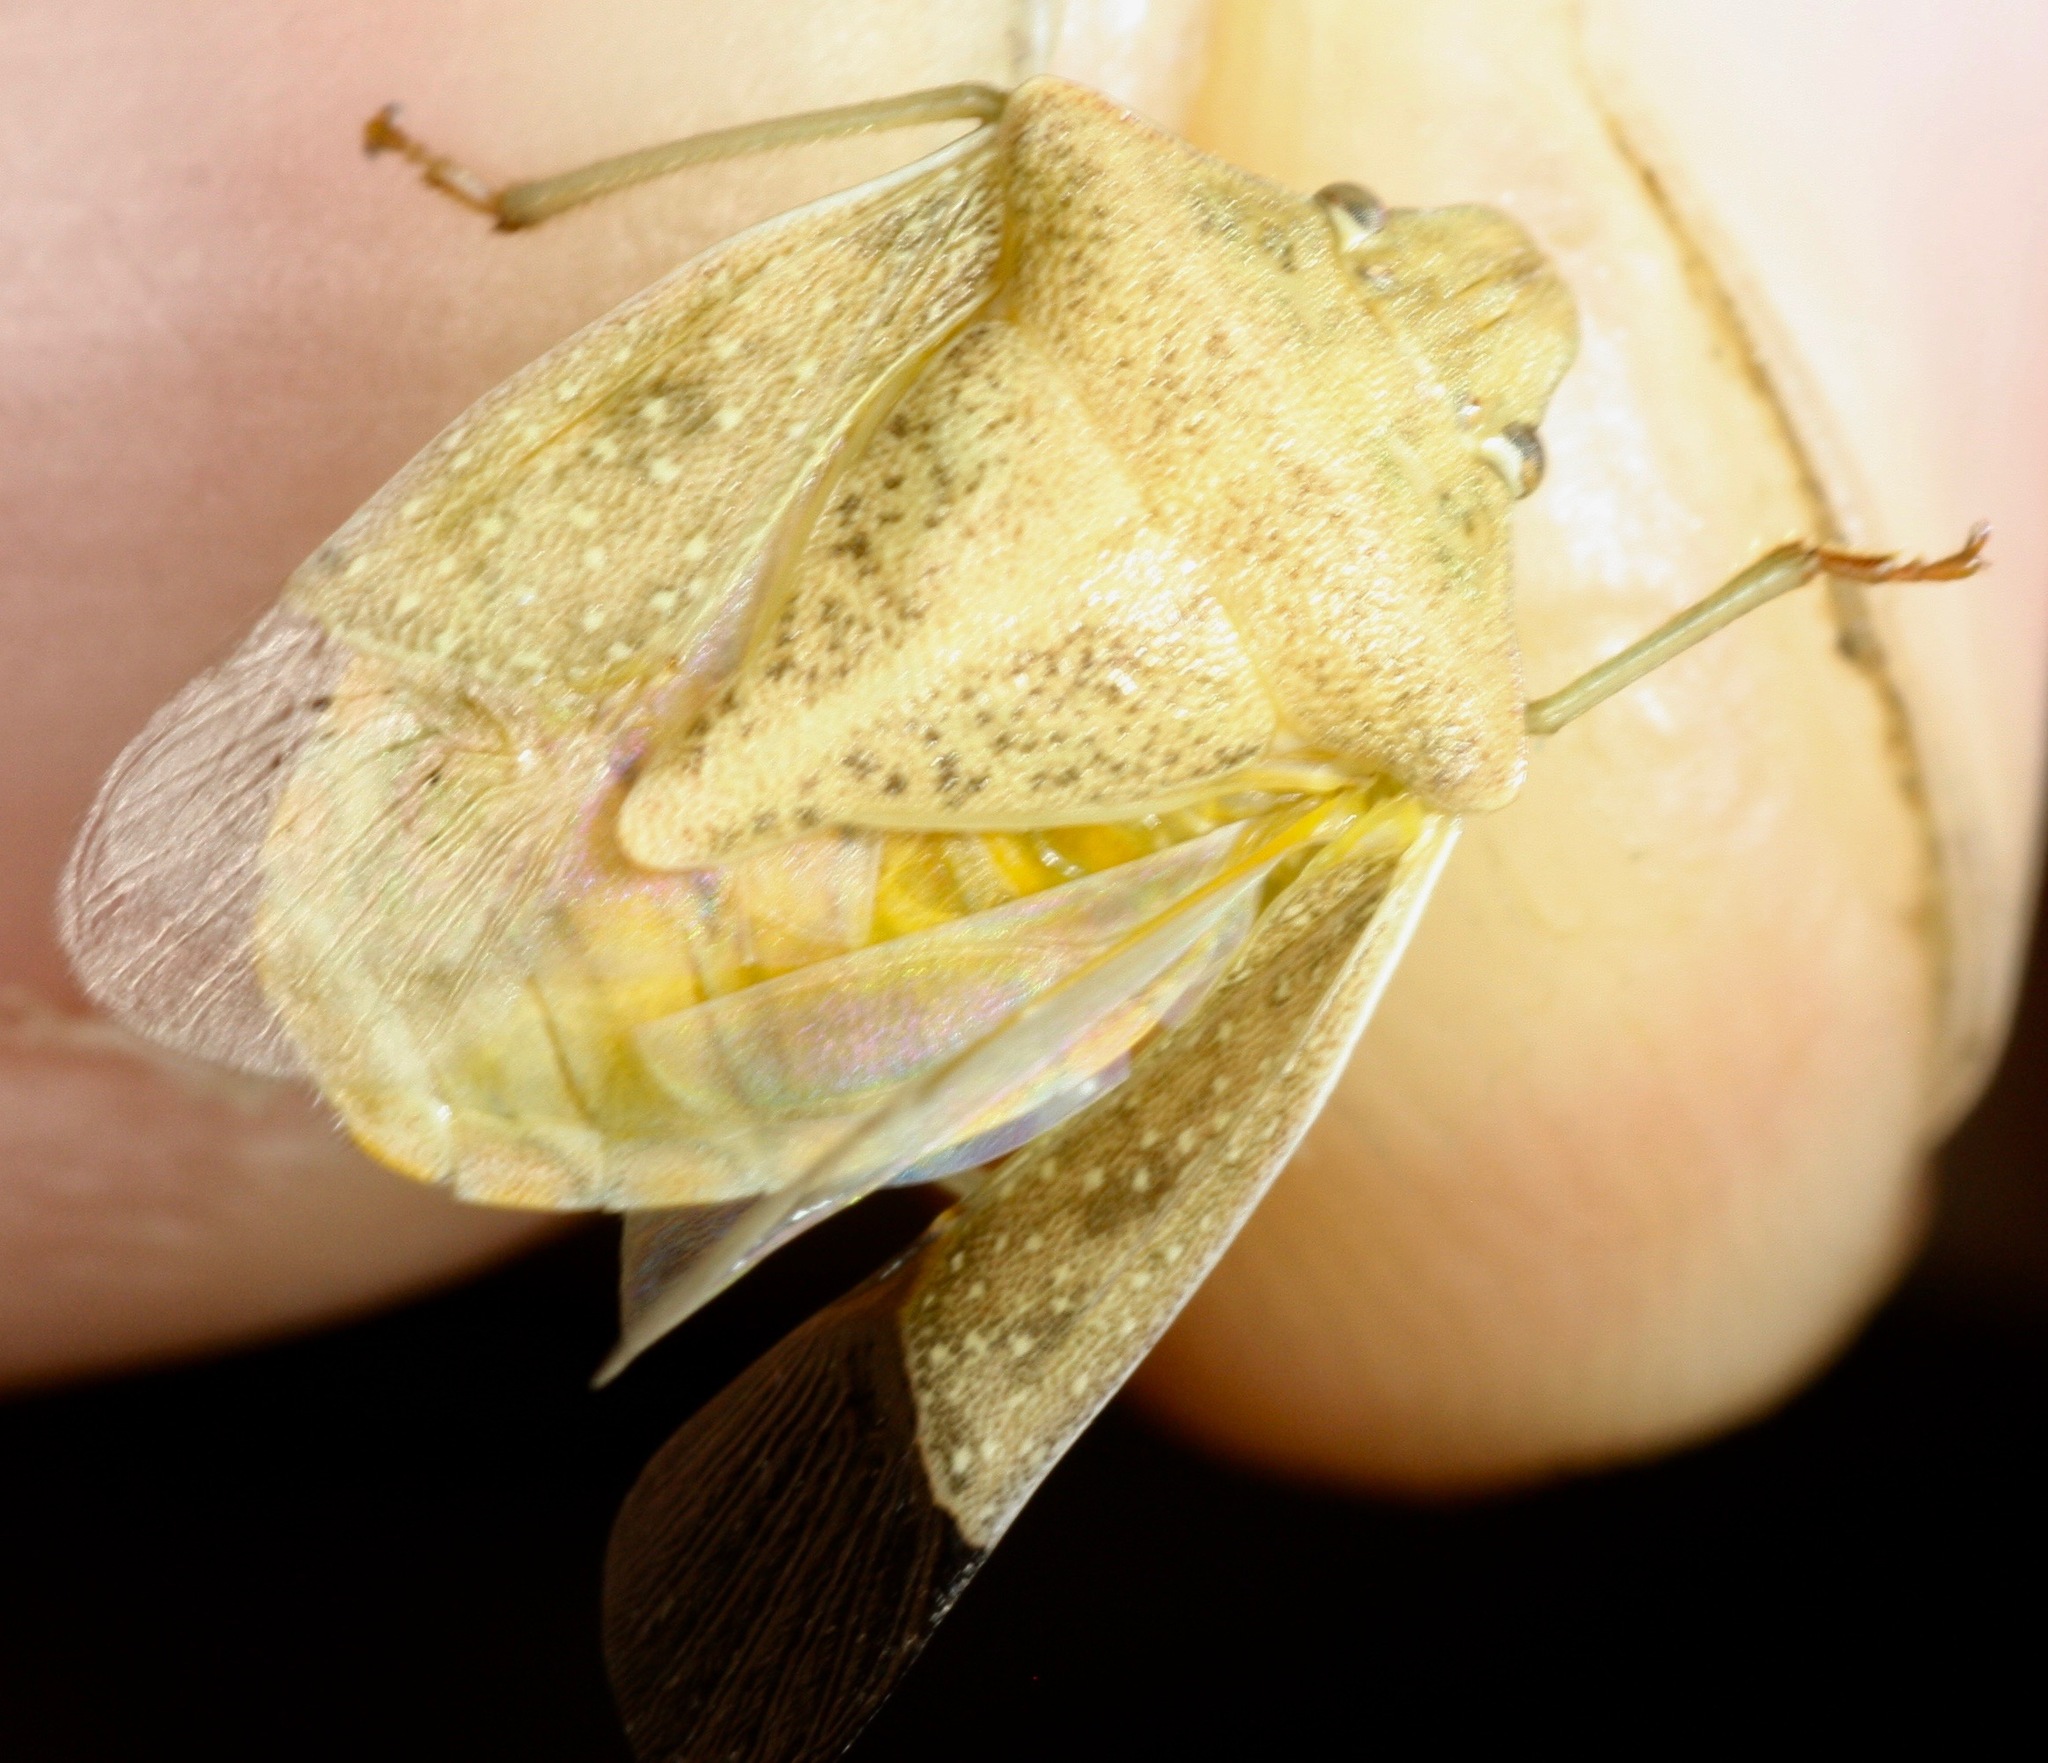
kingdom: Animalia
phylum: Arthropoda
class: Insecta
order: Hemiptera
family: Pentatomidae
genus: Thyanta
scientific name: Thyanta accerra
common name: Stink bug
